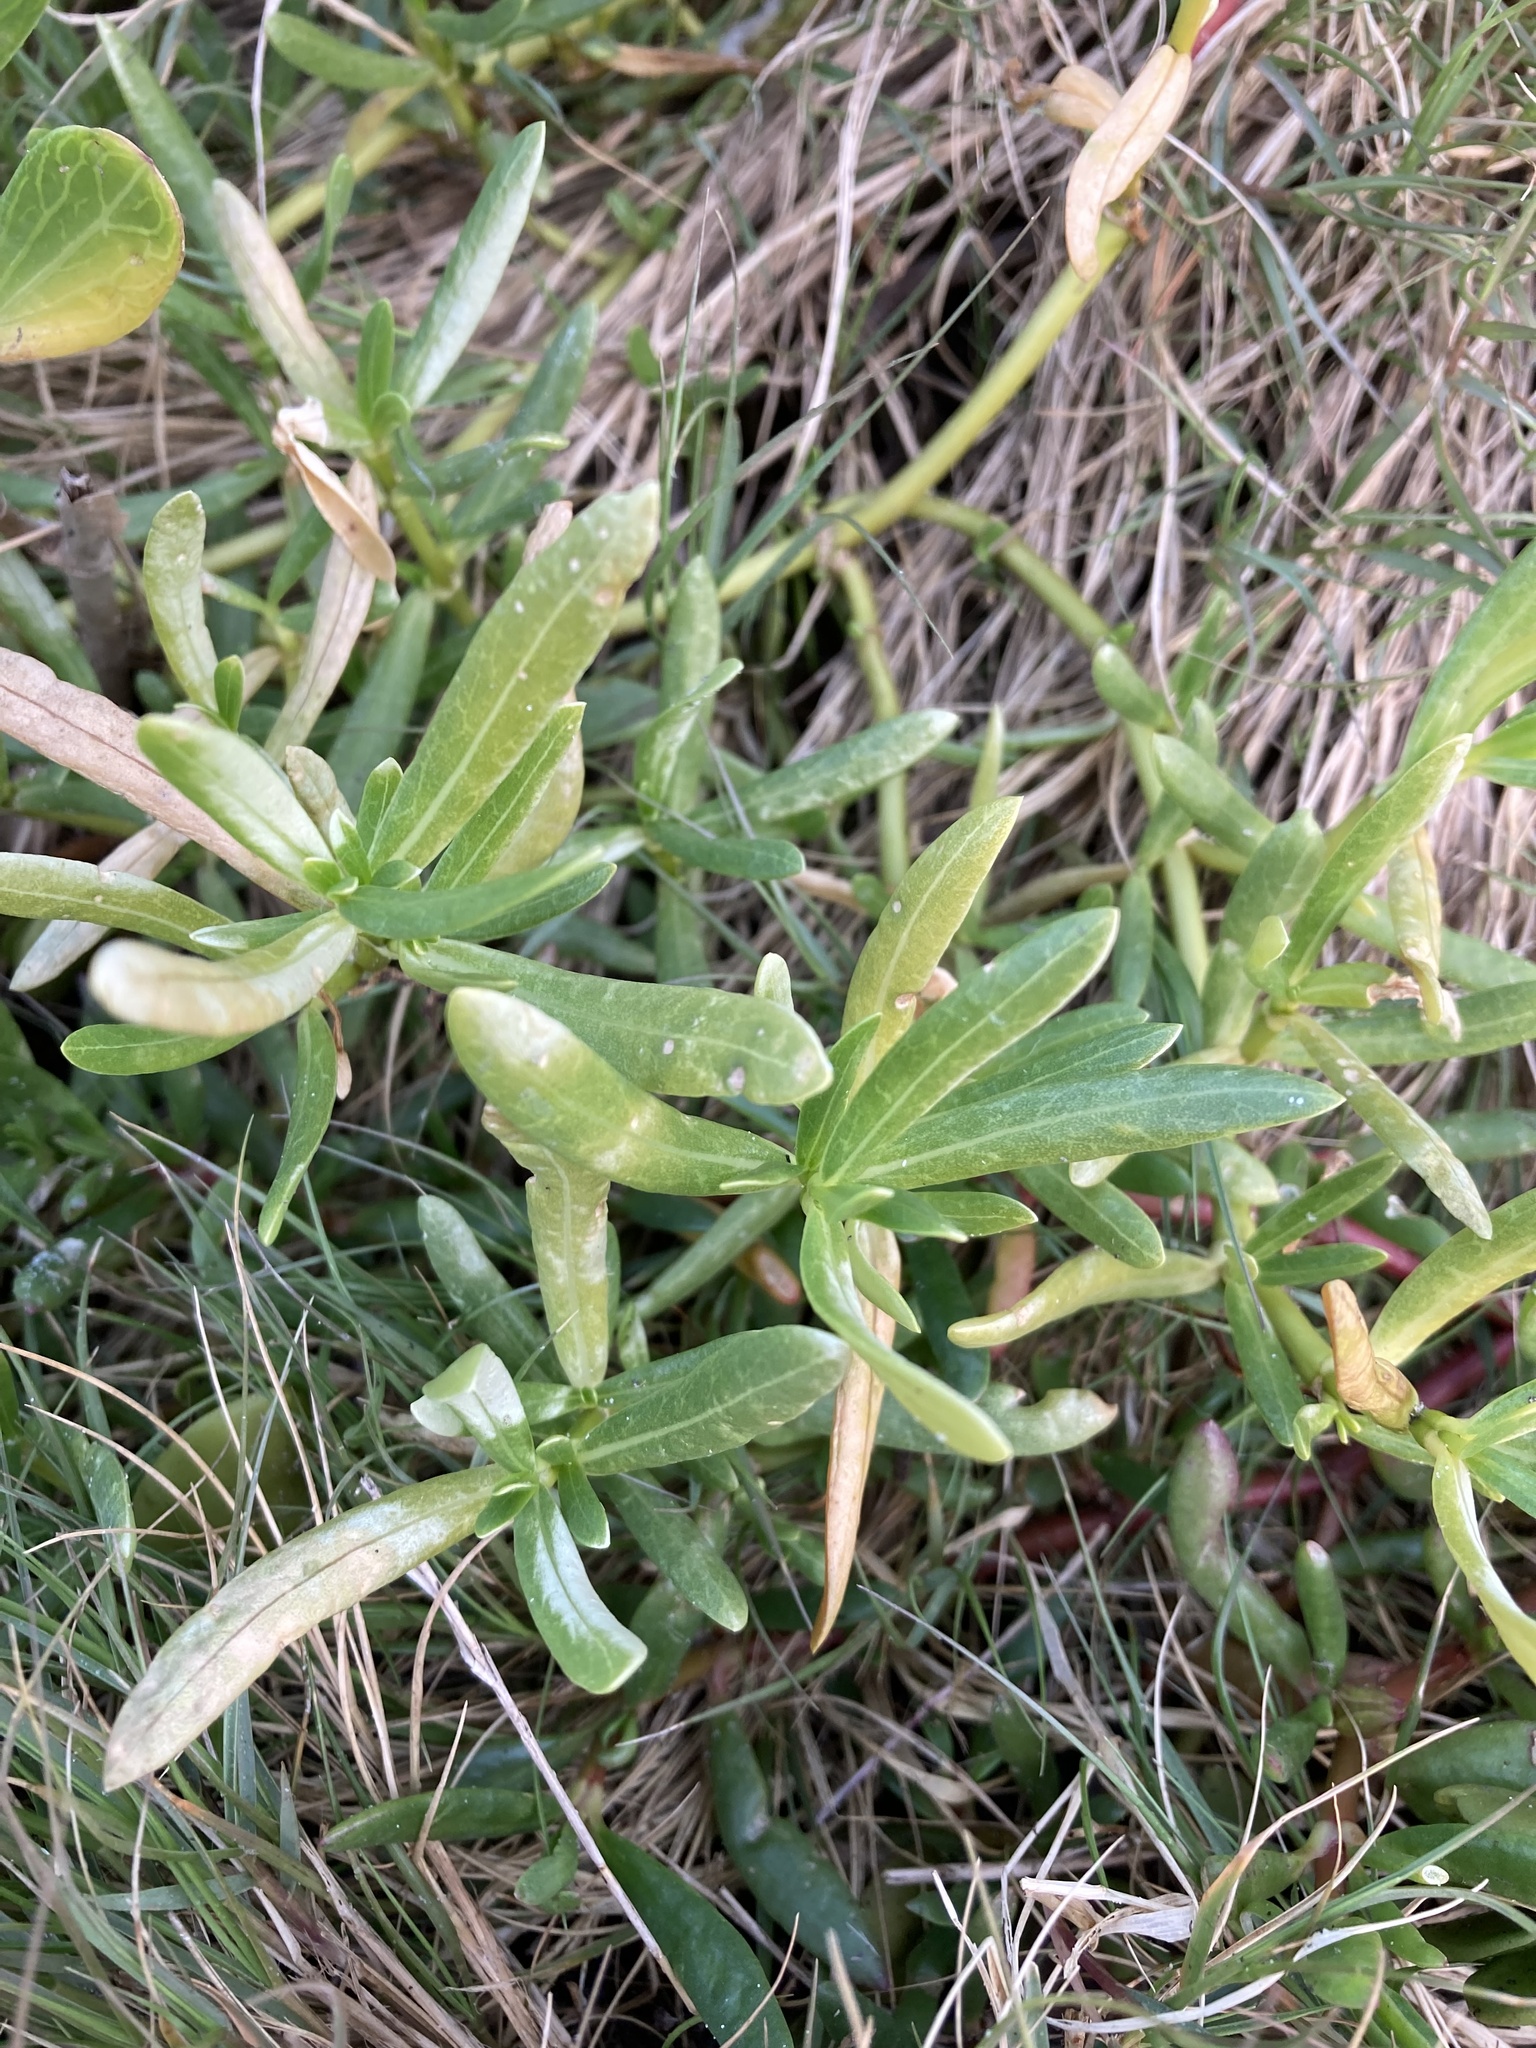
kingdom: Plantae
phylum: Tracheophyta
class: Magnoliopsida
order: Brassicales
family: Bataceae
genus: Batis
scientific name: Batis maritima
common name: Turtleweed
